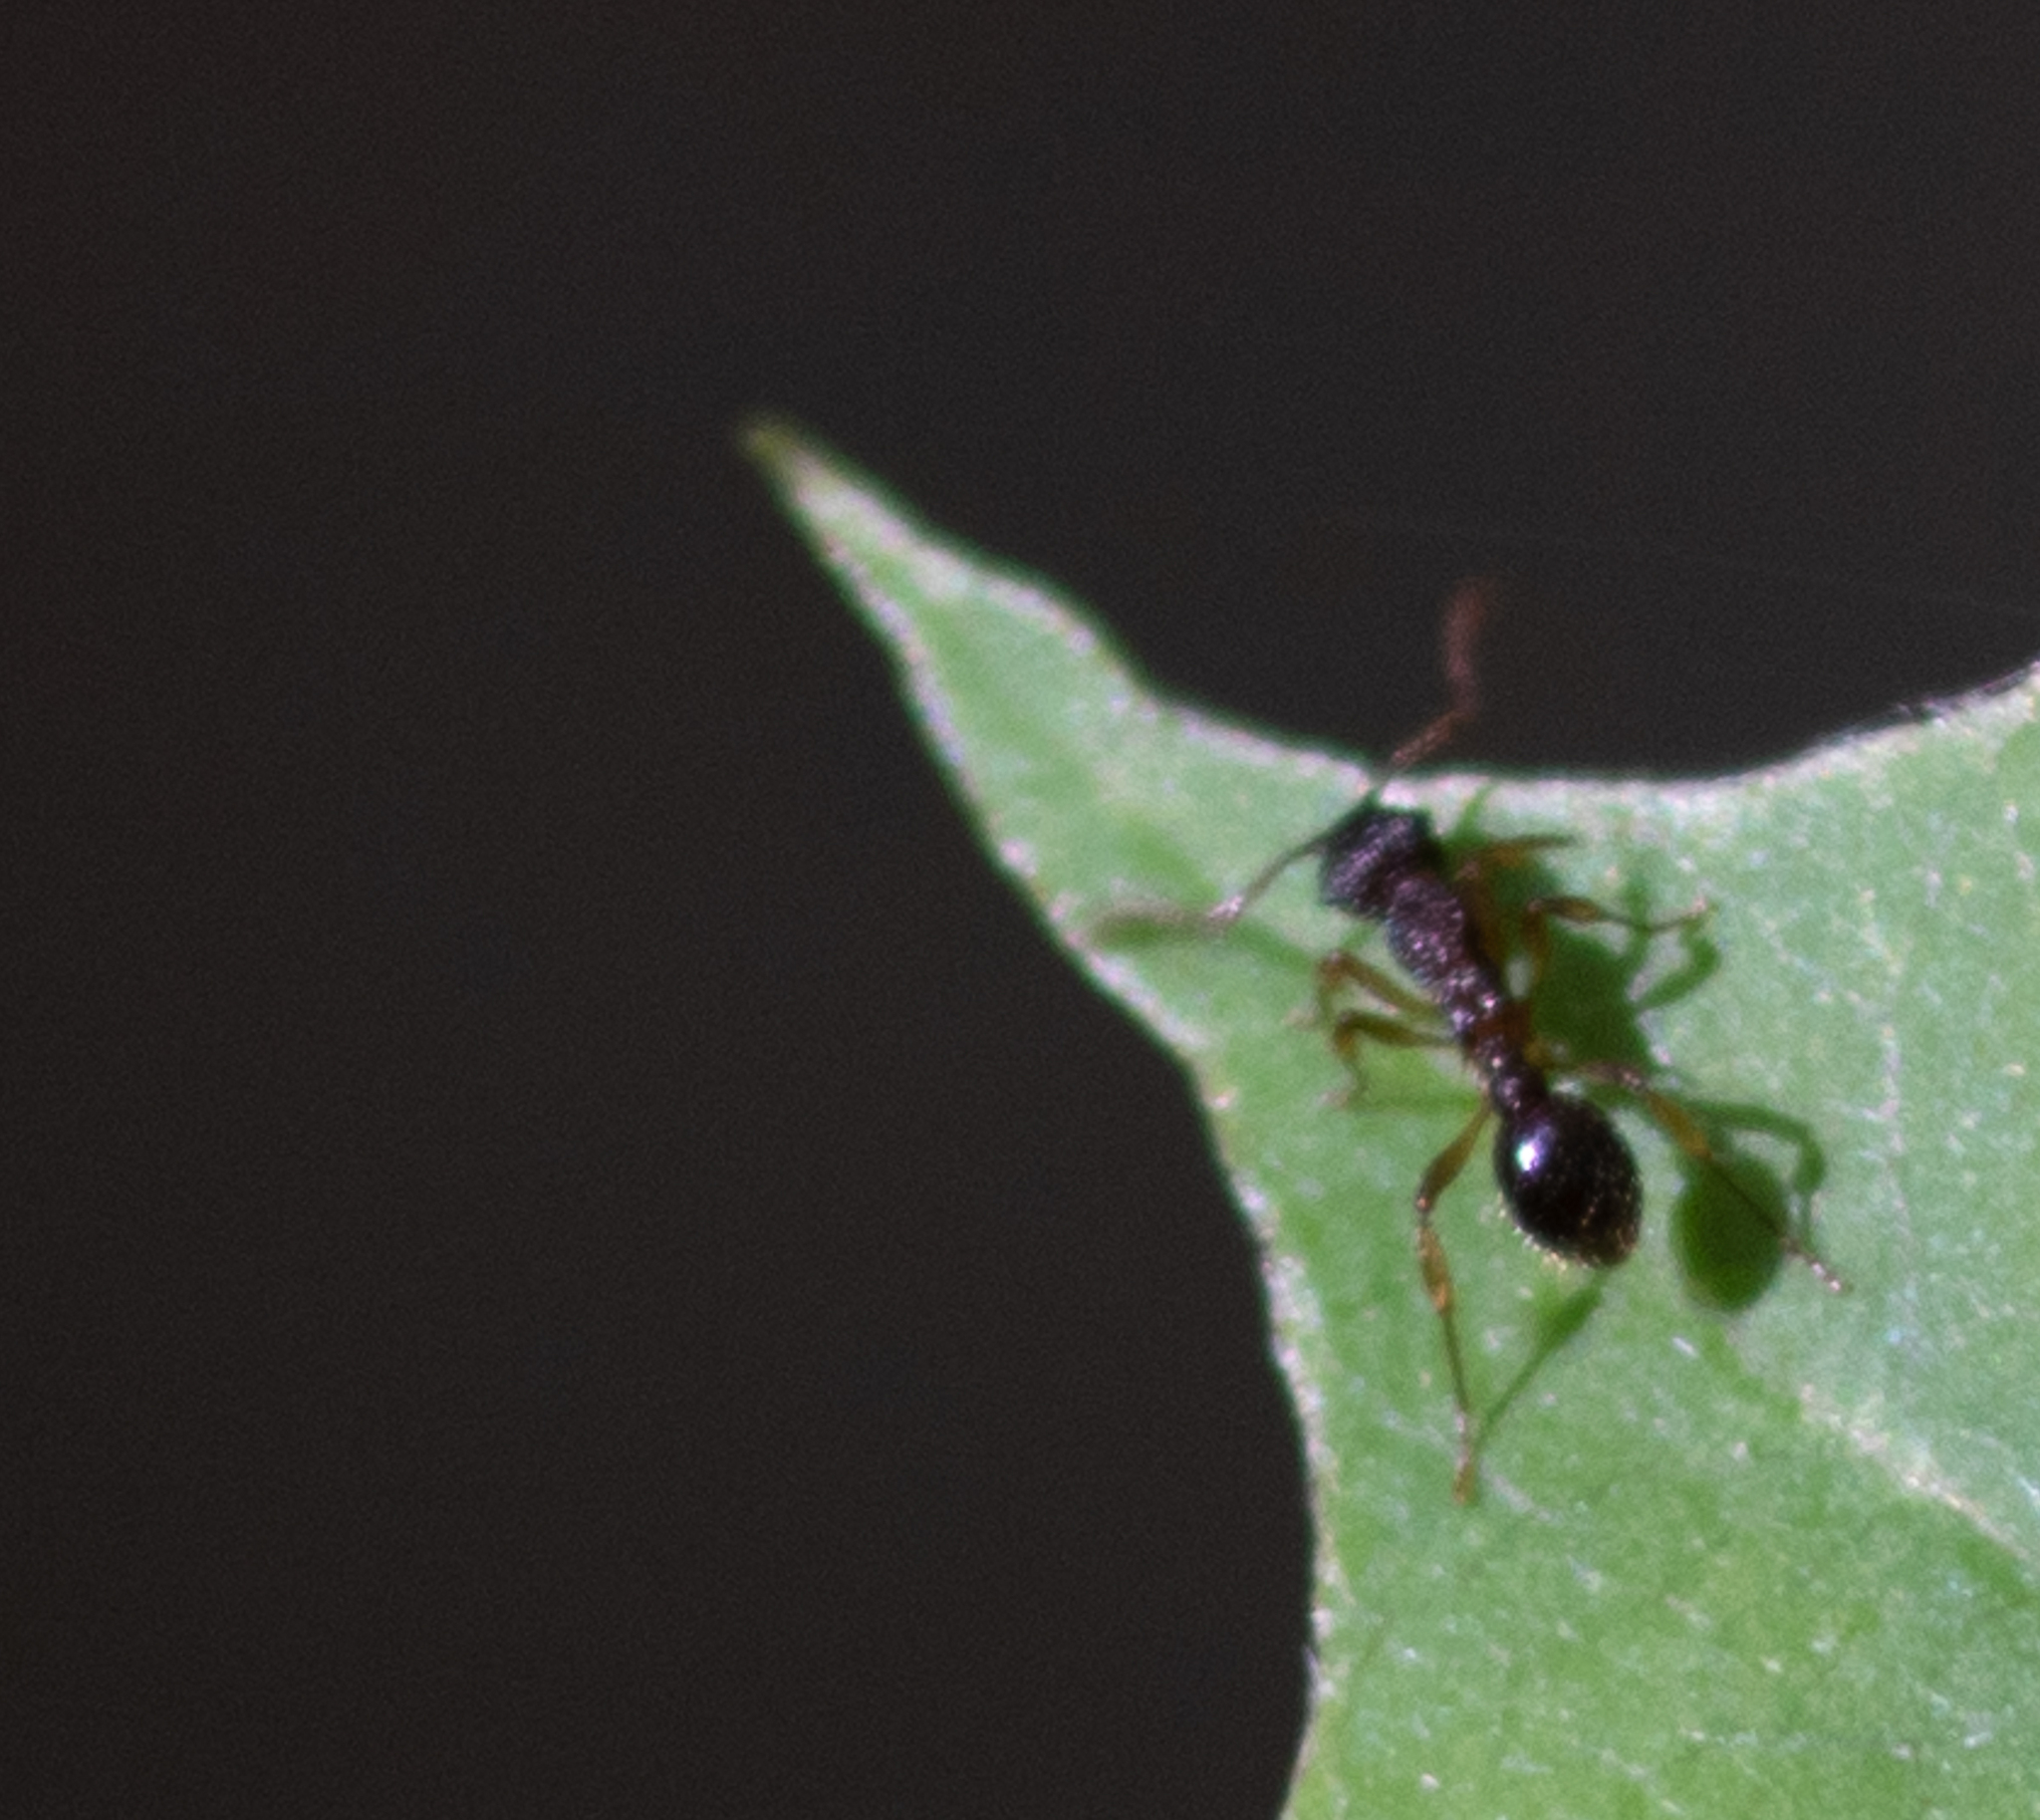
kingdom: Animalia
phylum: Arthropoda
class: Insecta
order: Hymenoptera
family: Formicidae
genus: Tetramorium
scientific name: Tetramorium immigrans
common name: Pavement ant
